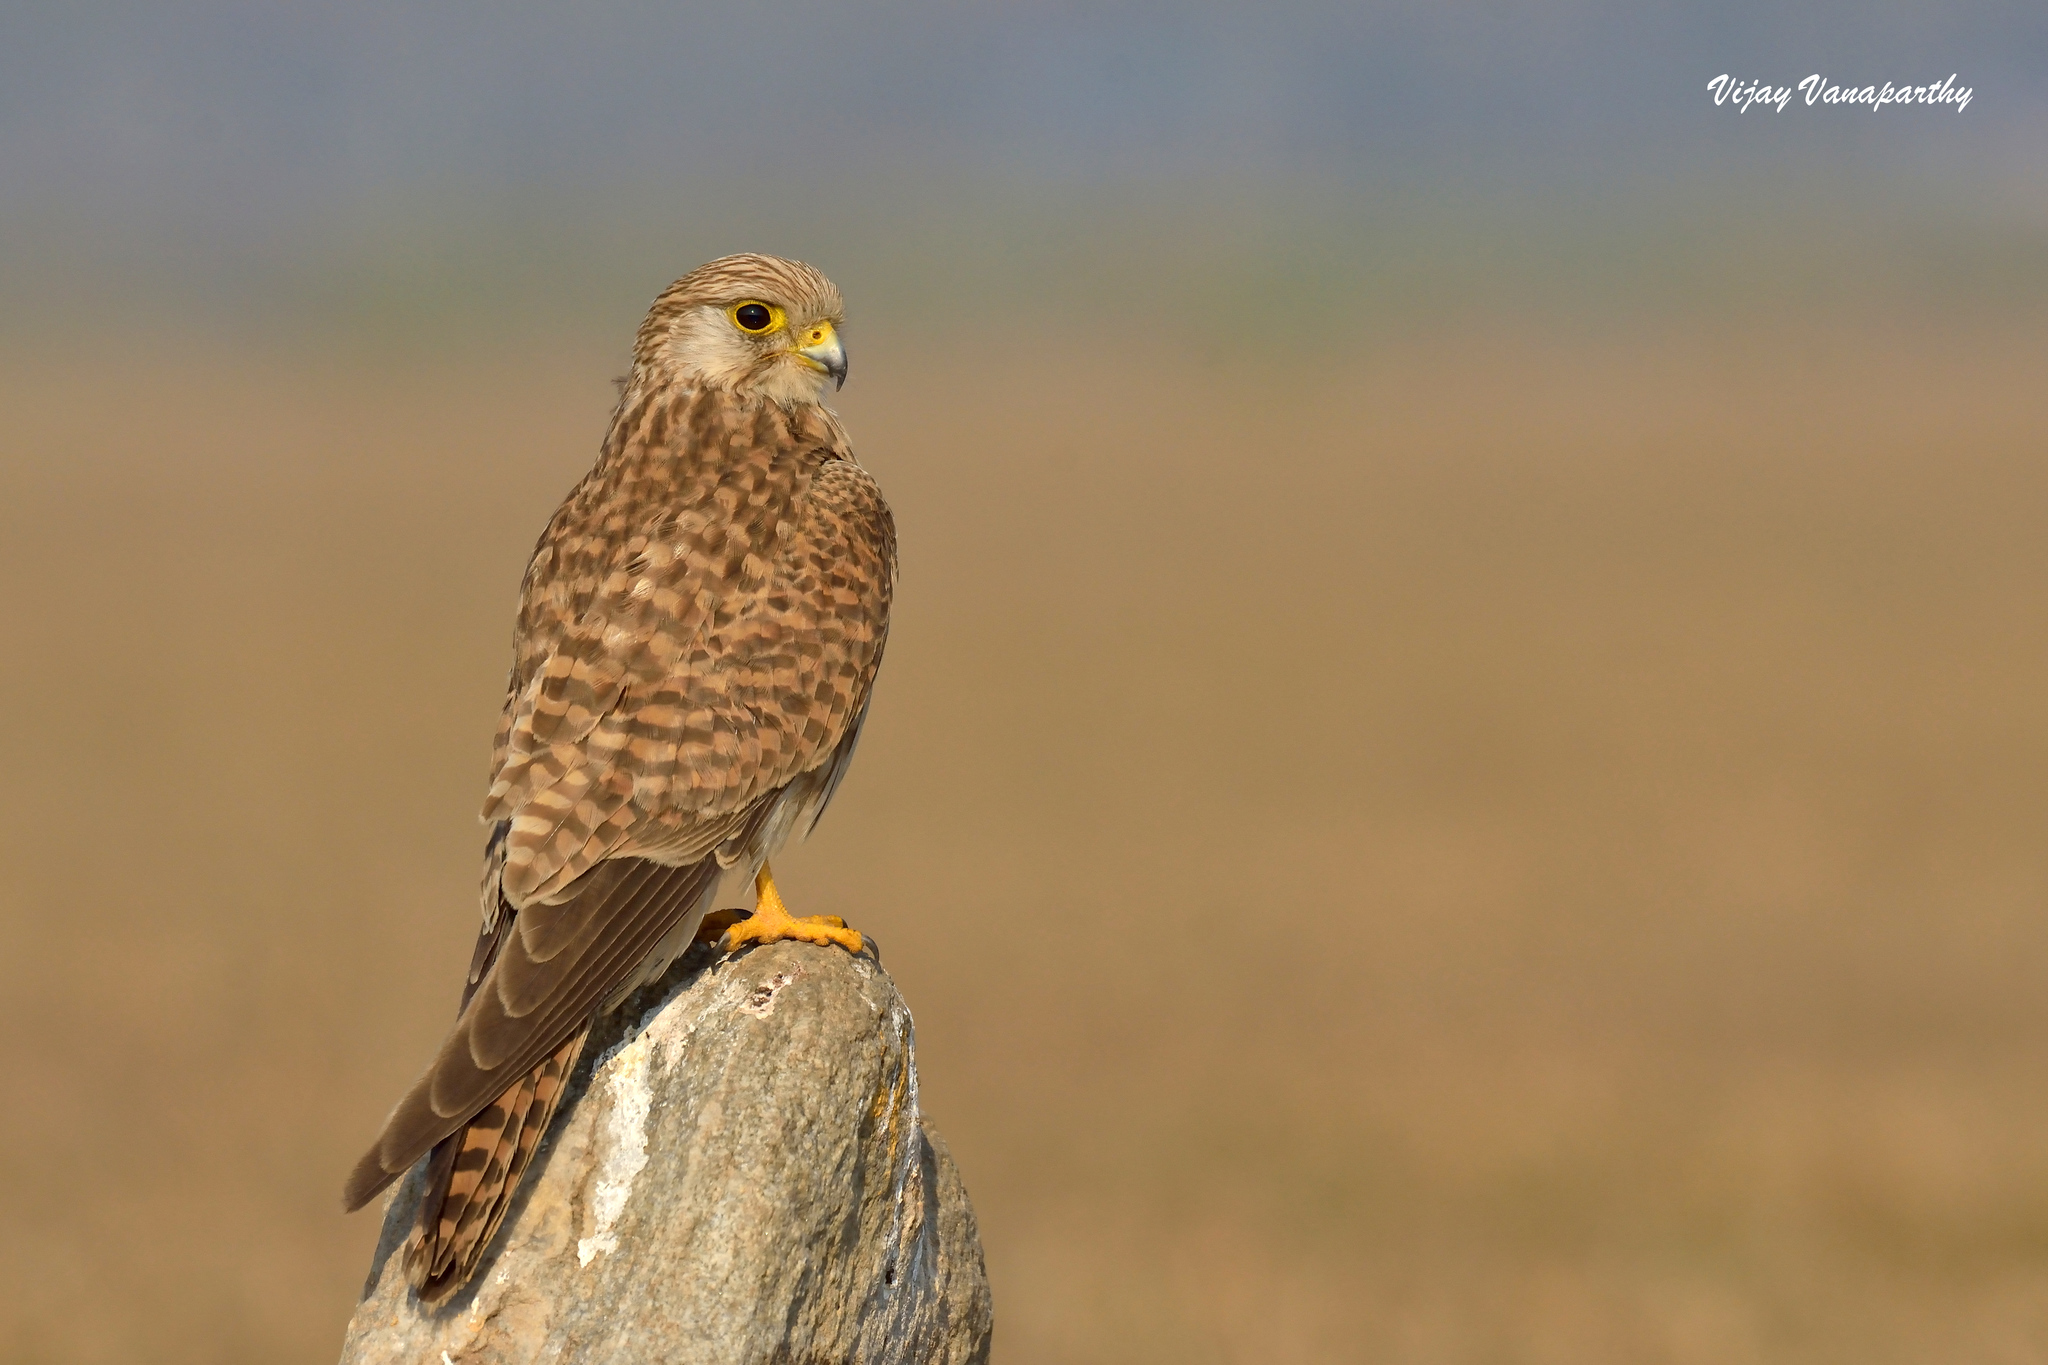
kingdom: Animalia
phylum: Chordata
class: Aves
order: Falconiformes
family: Falconidae
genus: Falco
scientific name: Falco tinnunculus
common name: Common kestrel
